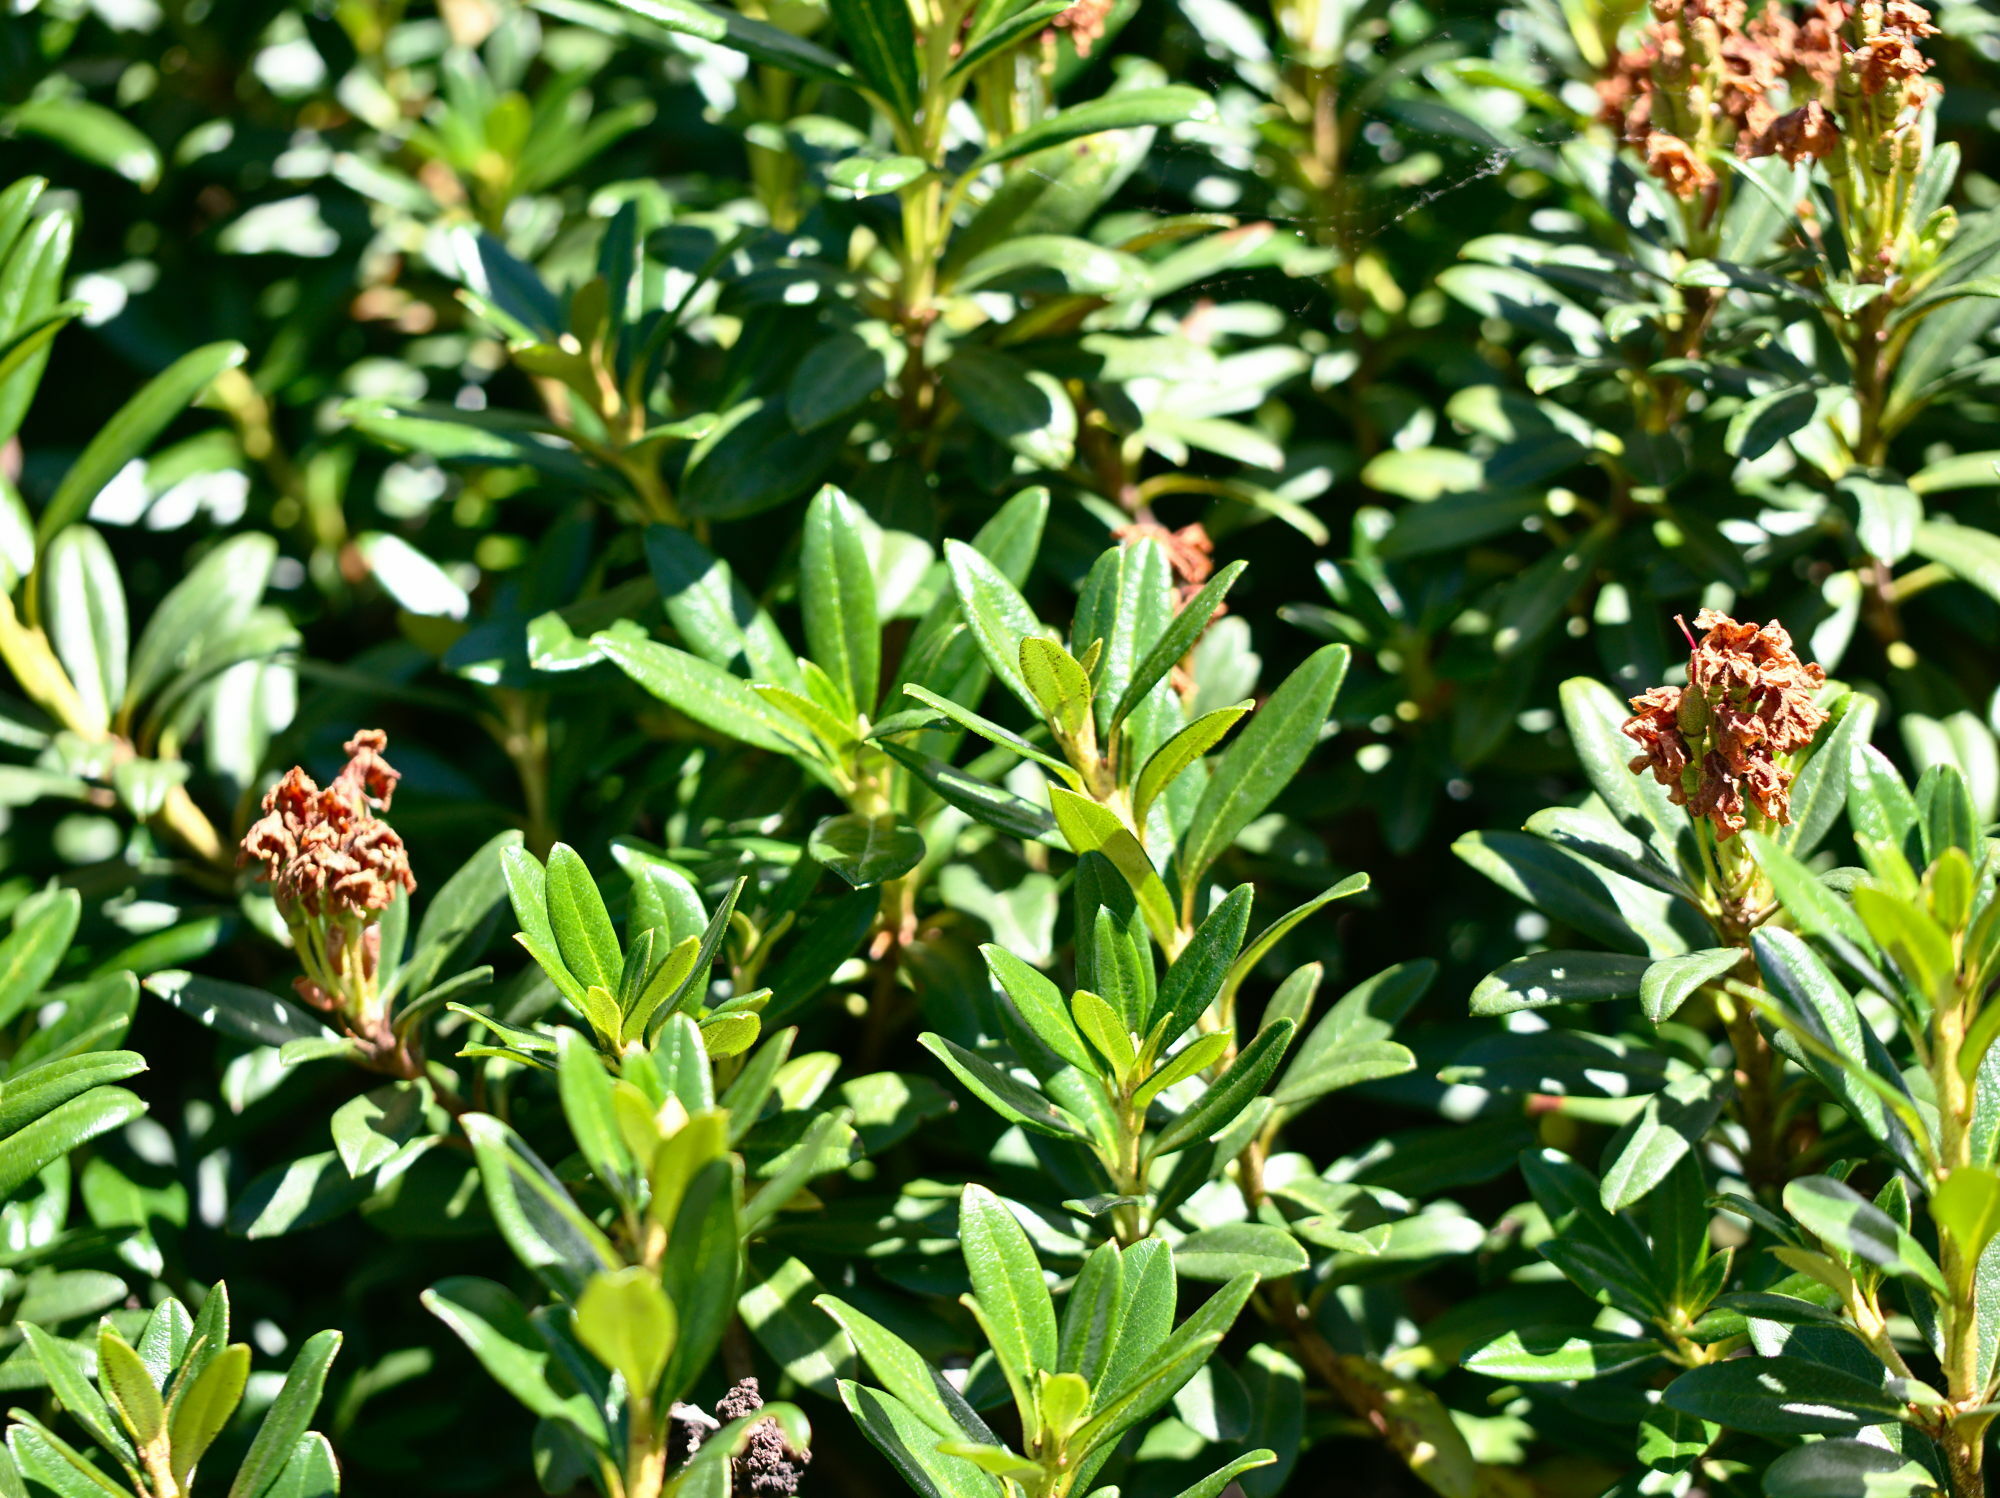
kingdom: Plantae
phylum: Tracheophyta
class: Magnoliopsida
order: Ericales
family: Ericaceae
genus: Rhododendron
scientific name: Rhododendron ferrugineum
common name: Alpenrose
